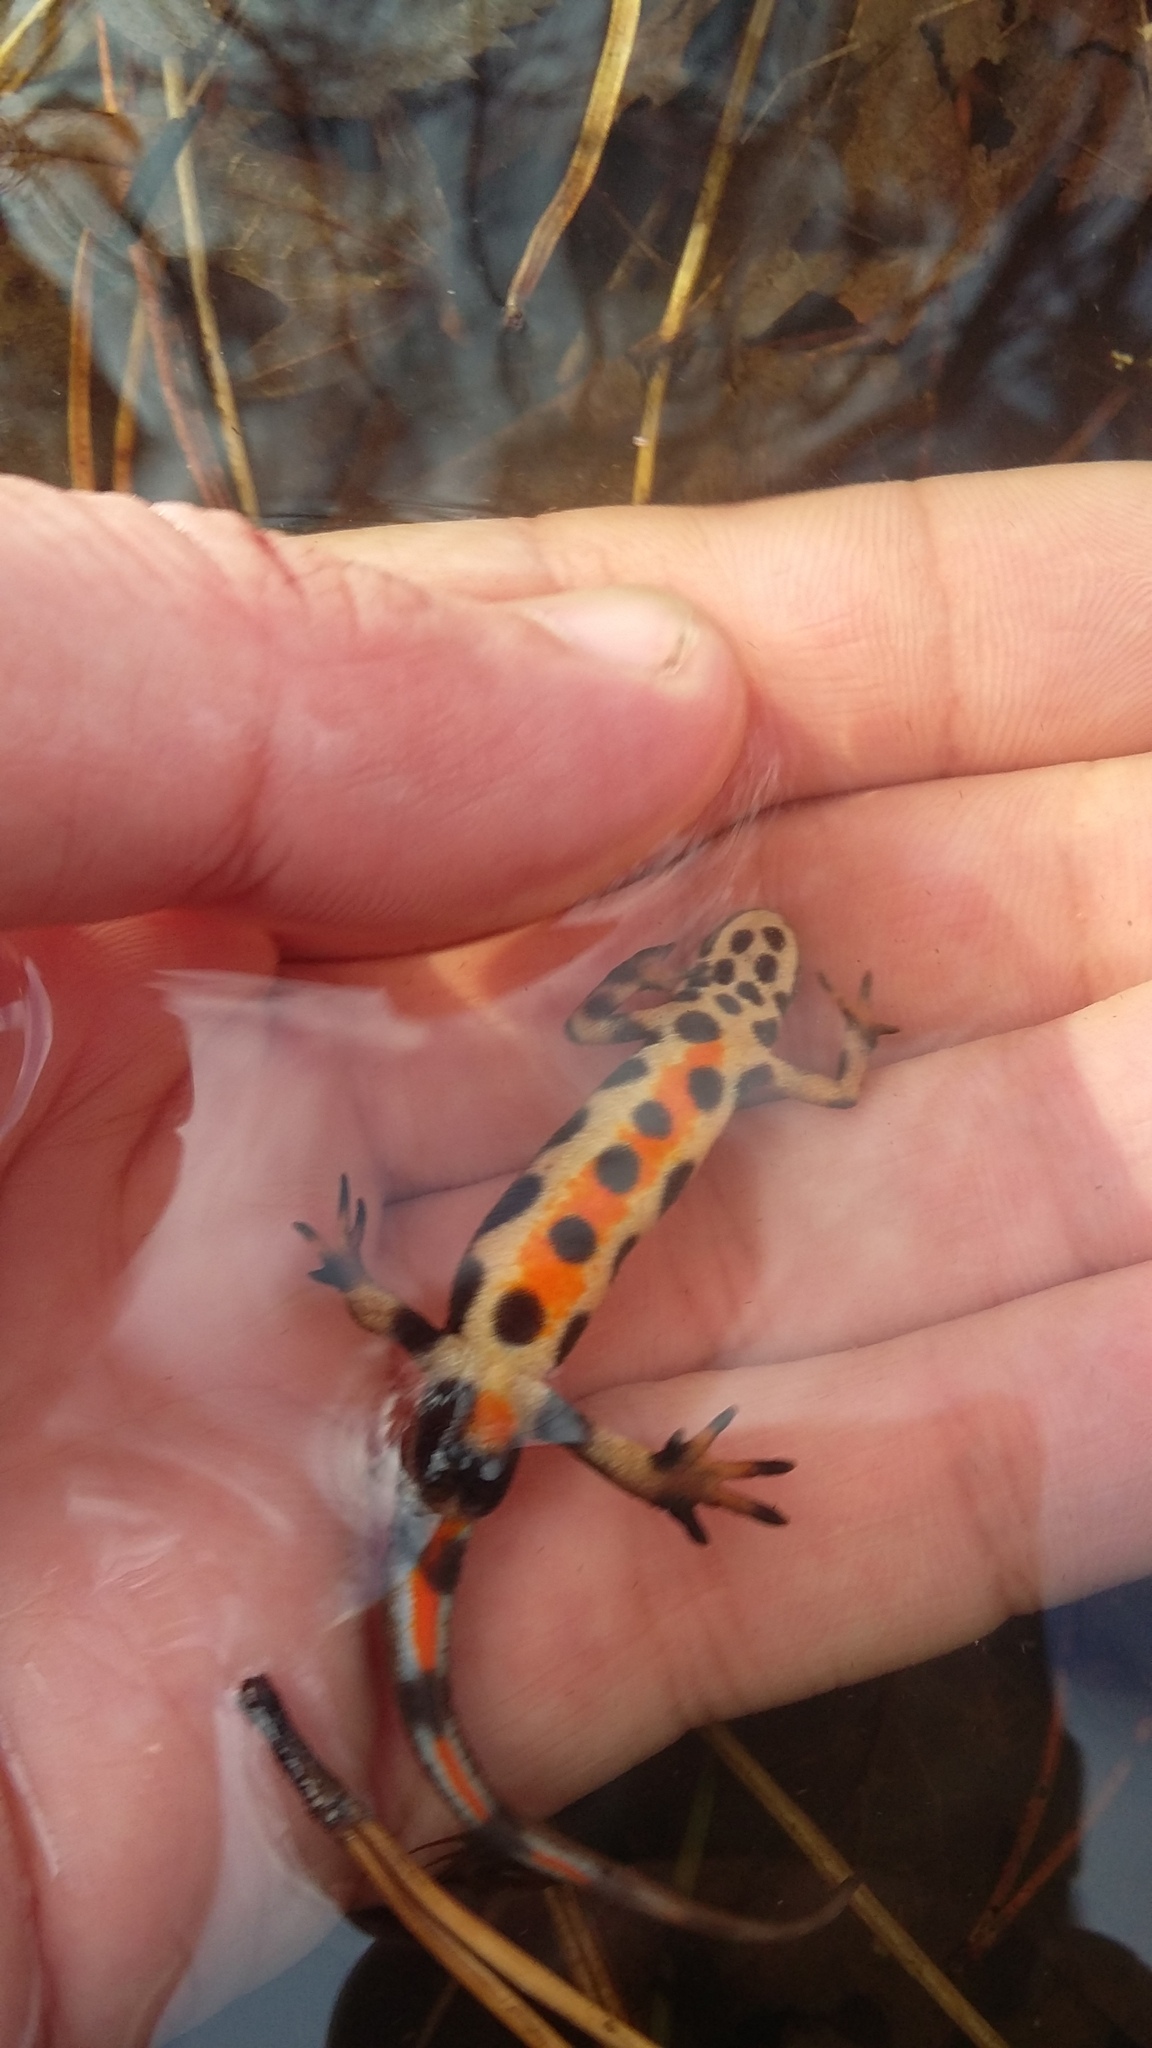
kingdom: Animalia
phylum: Chordata
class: Amphibia
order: Caudata
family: Salamandridae
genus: Lissotriton
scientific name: Lissotriton vulgaris
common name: Smooth newt
